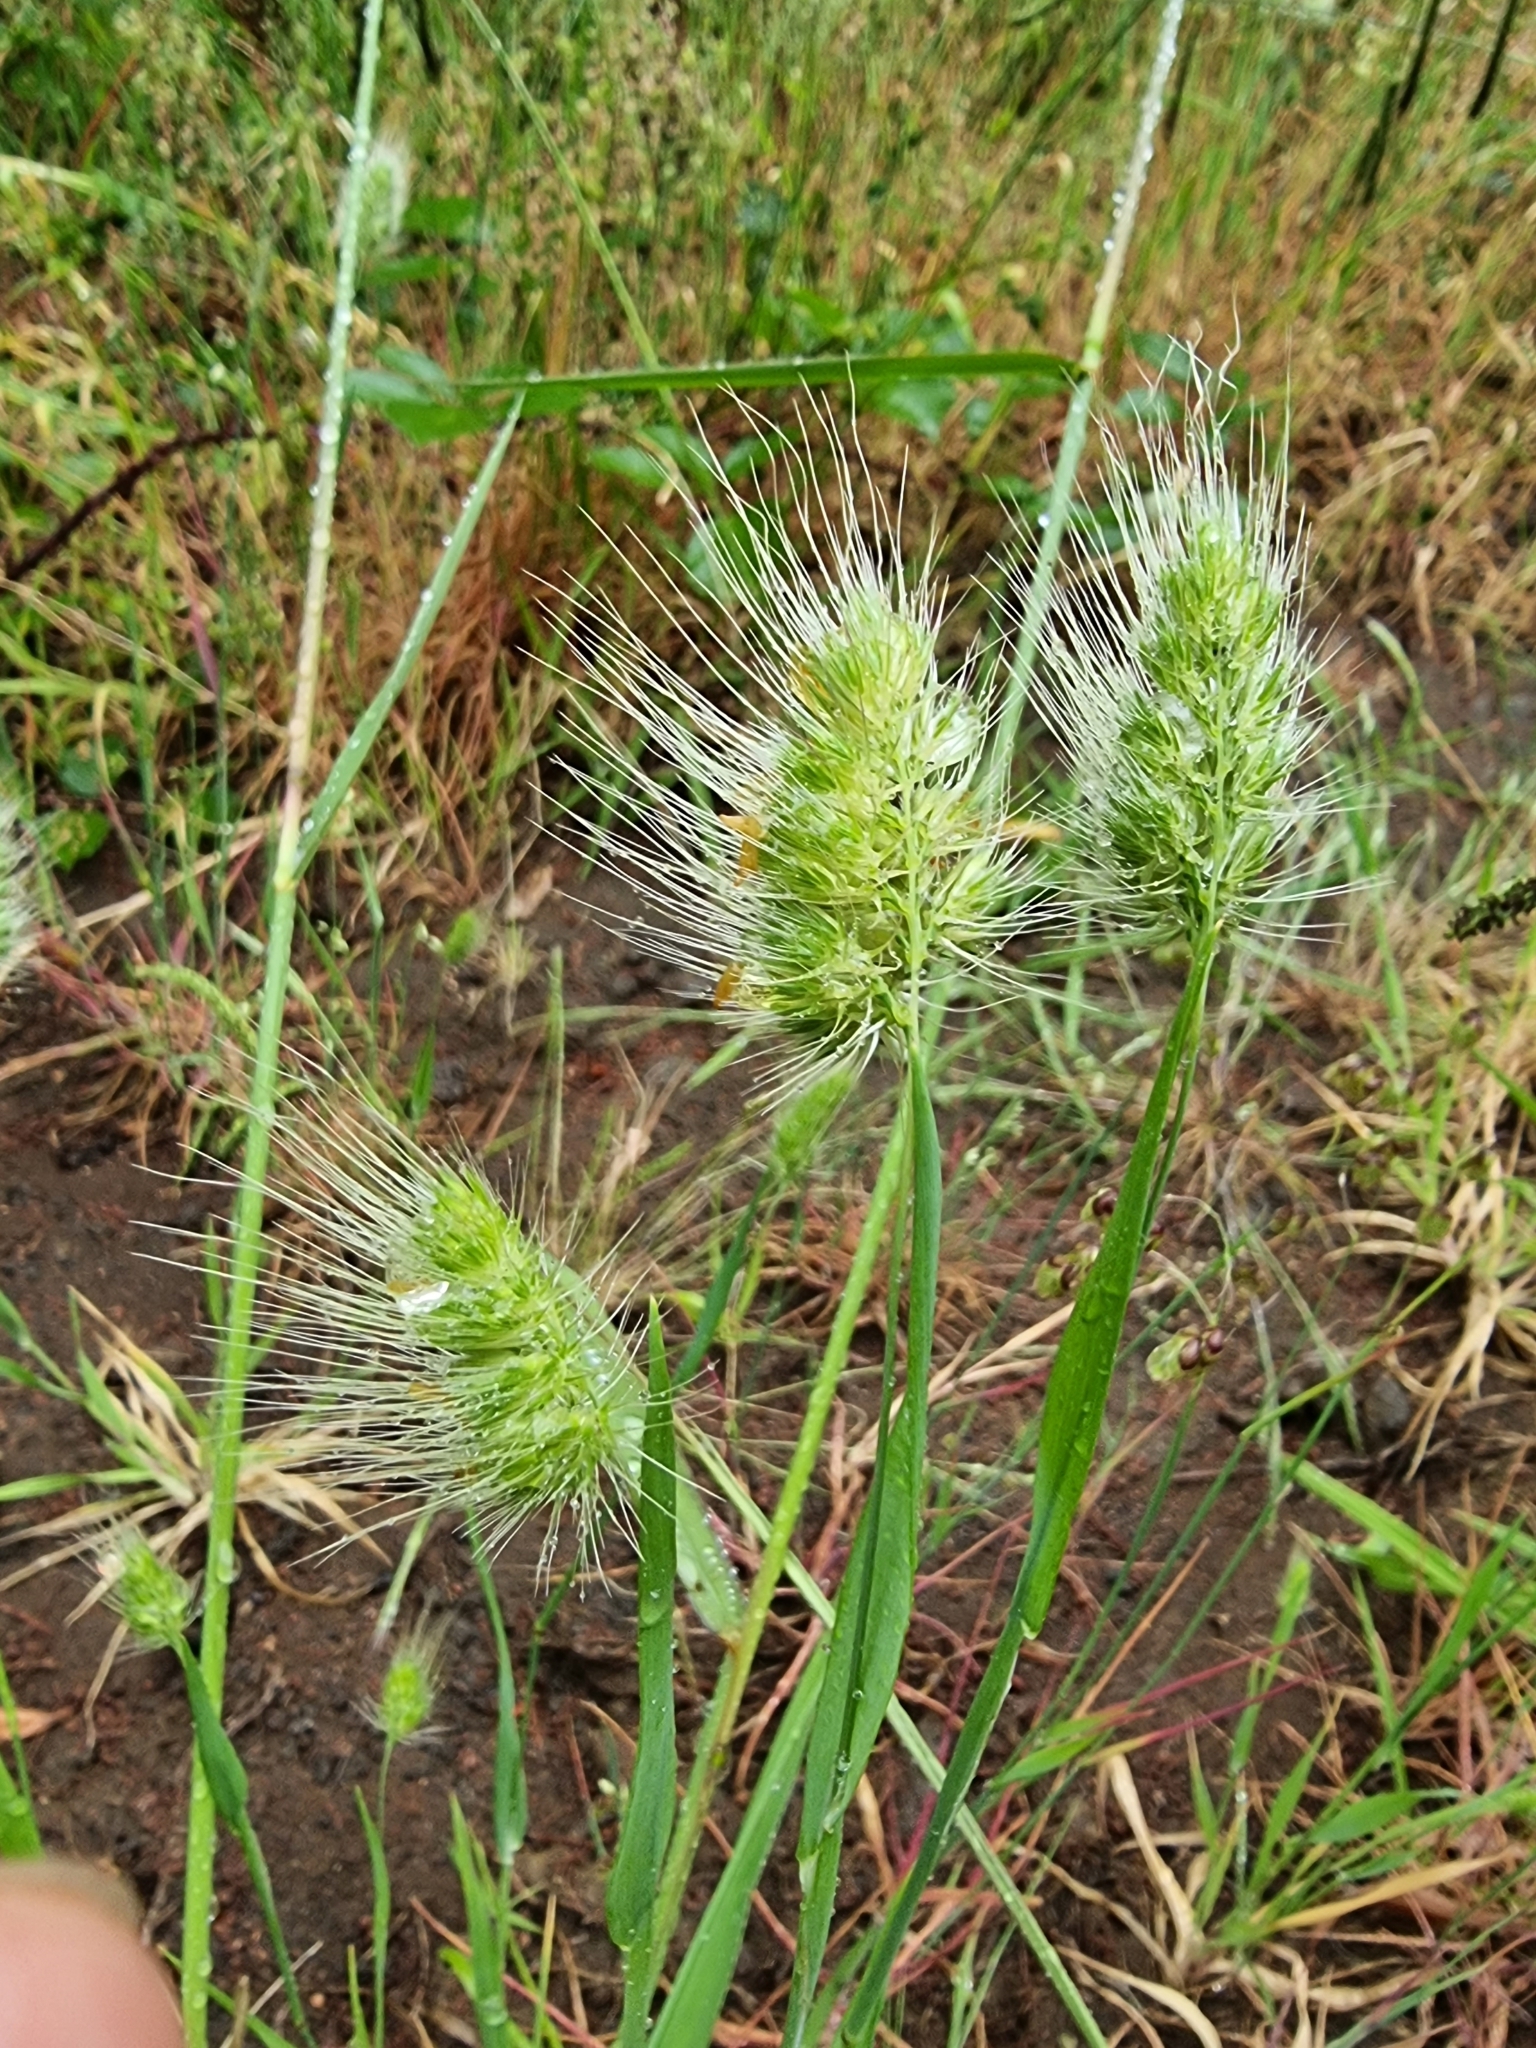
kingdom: Plantae
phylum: Tracheophyta
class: Liliopsida
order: Poales
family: Poaceae
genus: Cynosurus
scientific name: Cynosurus echinatus
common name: Rough dog's-tail
